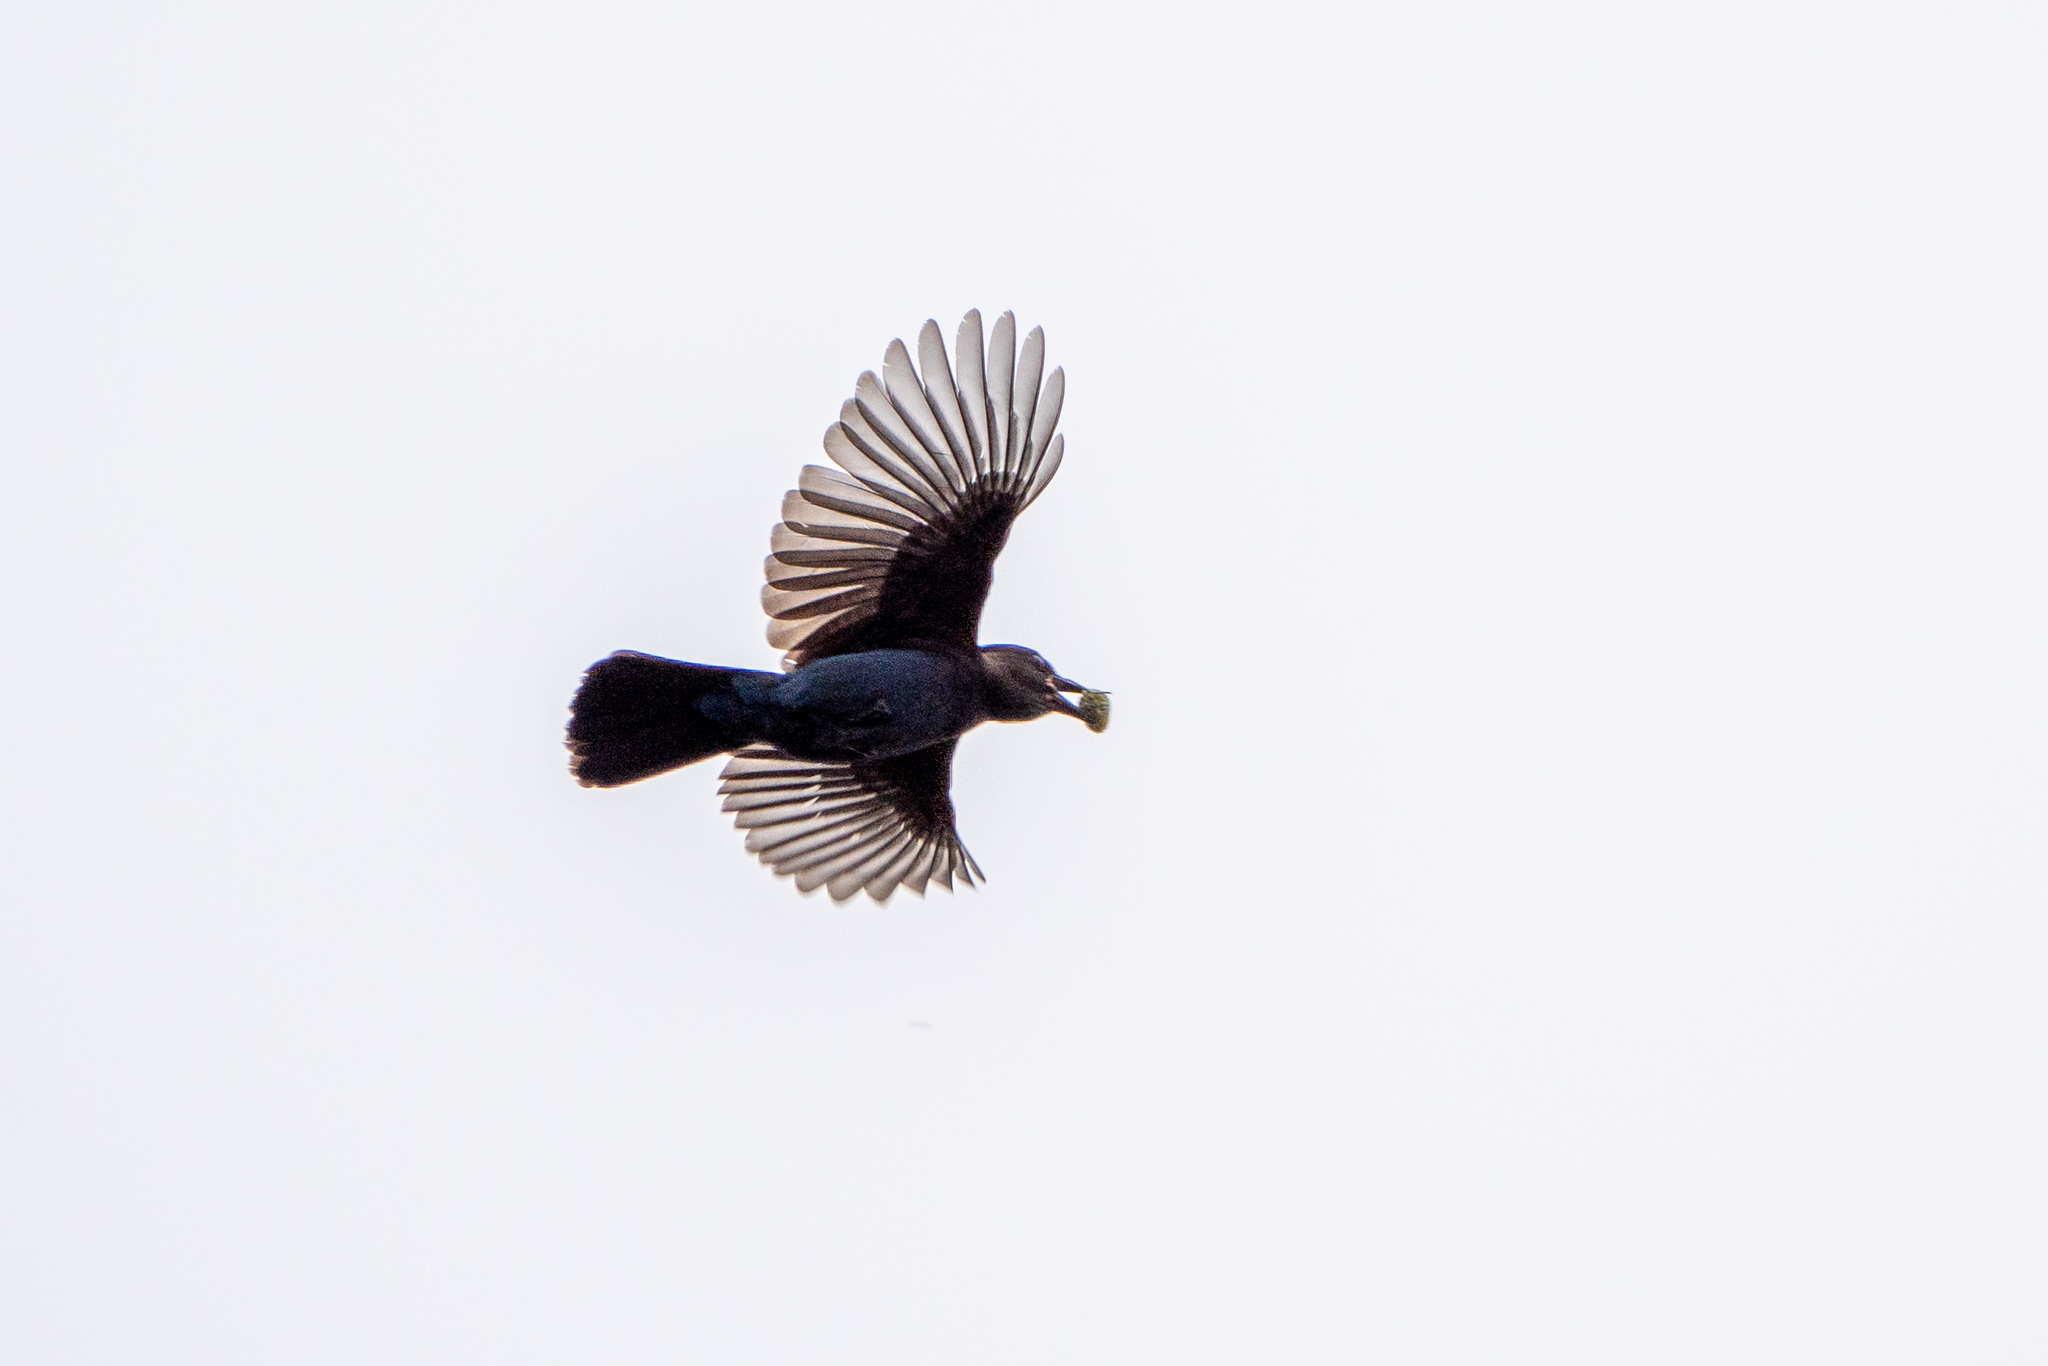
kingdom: Animalia
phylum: Chordata
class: Aves
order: Passeriformes
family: Corvidae
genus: Cyanocitta
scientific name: Cyanocitta stelleri
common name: Steller's jay
